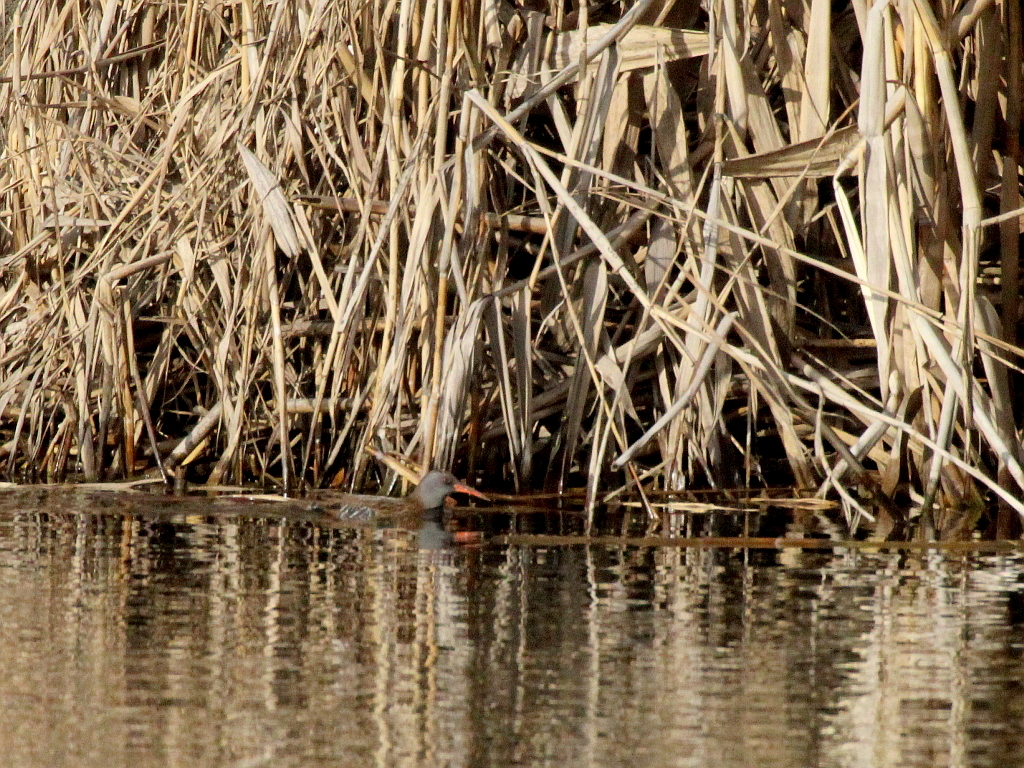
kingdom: Animalia
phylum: Chordata
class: Aves
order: Gruiformes
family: Rallidae
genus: Rallus
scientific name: Rallus aquaticus
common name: Water rail
